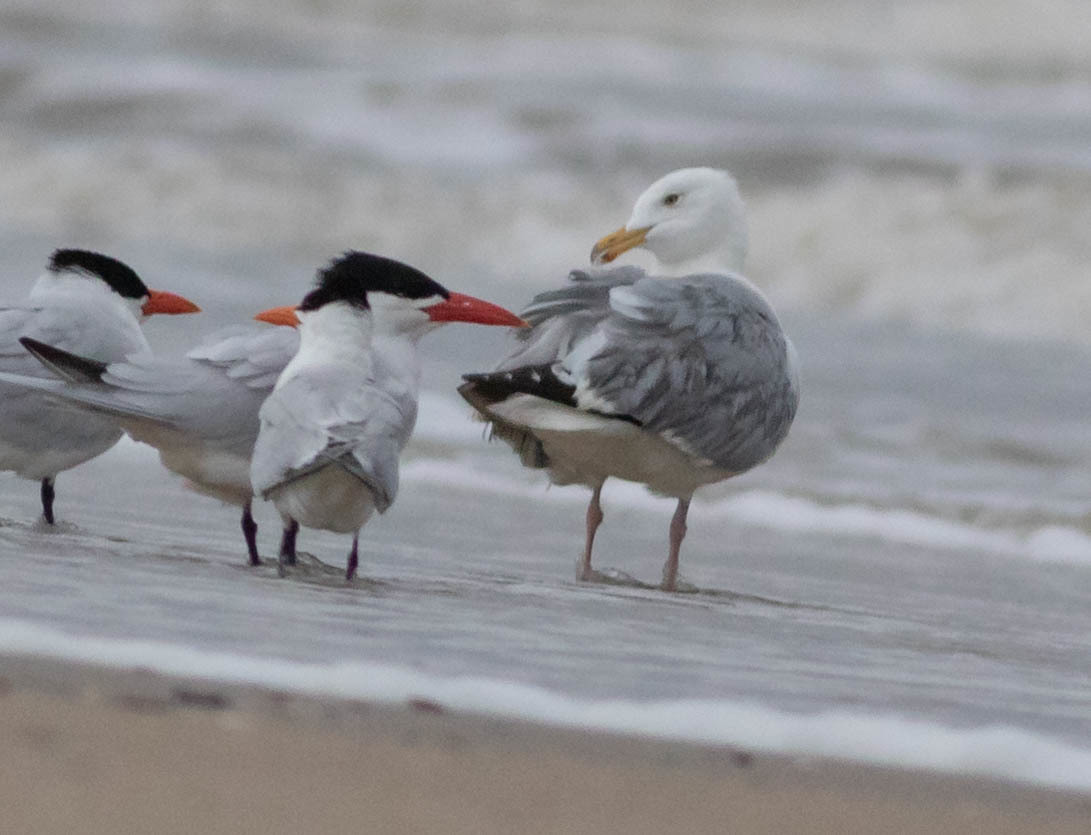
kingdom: Animalia
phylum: Chordata
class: Aves
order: Charadriiformes
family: Laridae
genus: Larus
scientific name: Larus argentatus
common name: Herring gull
